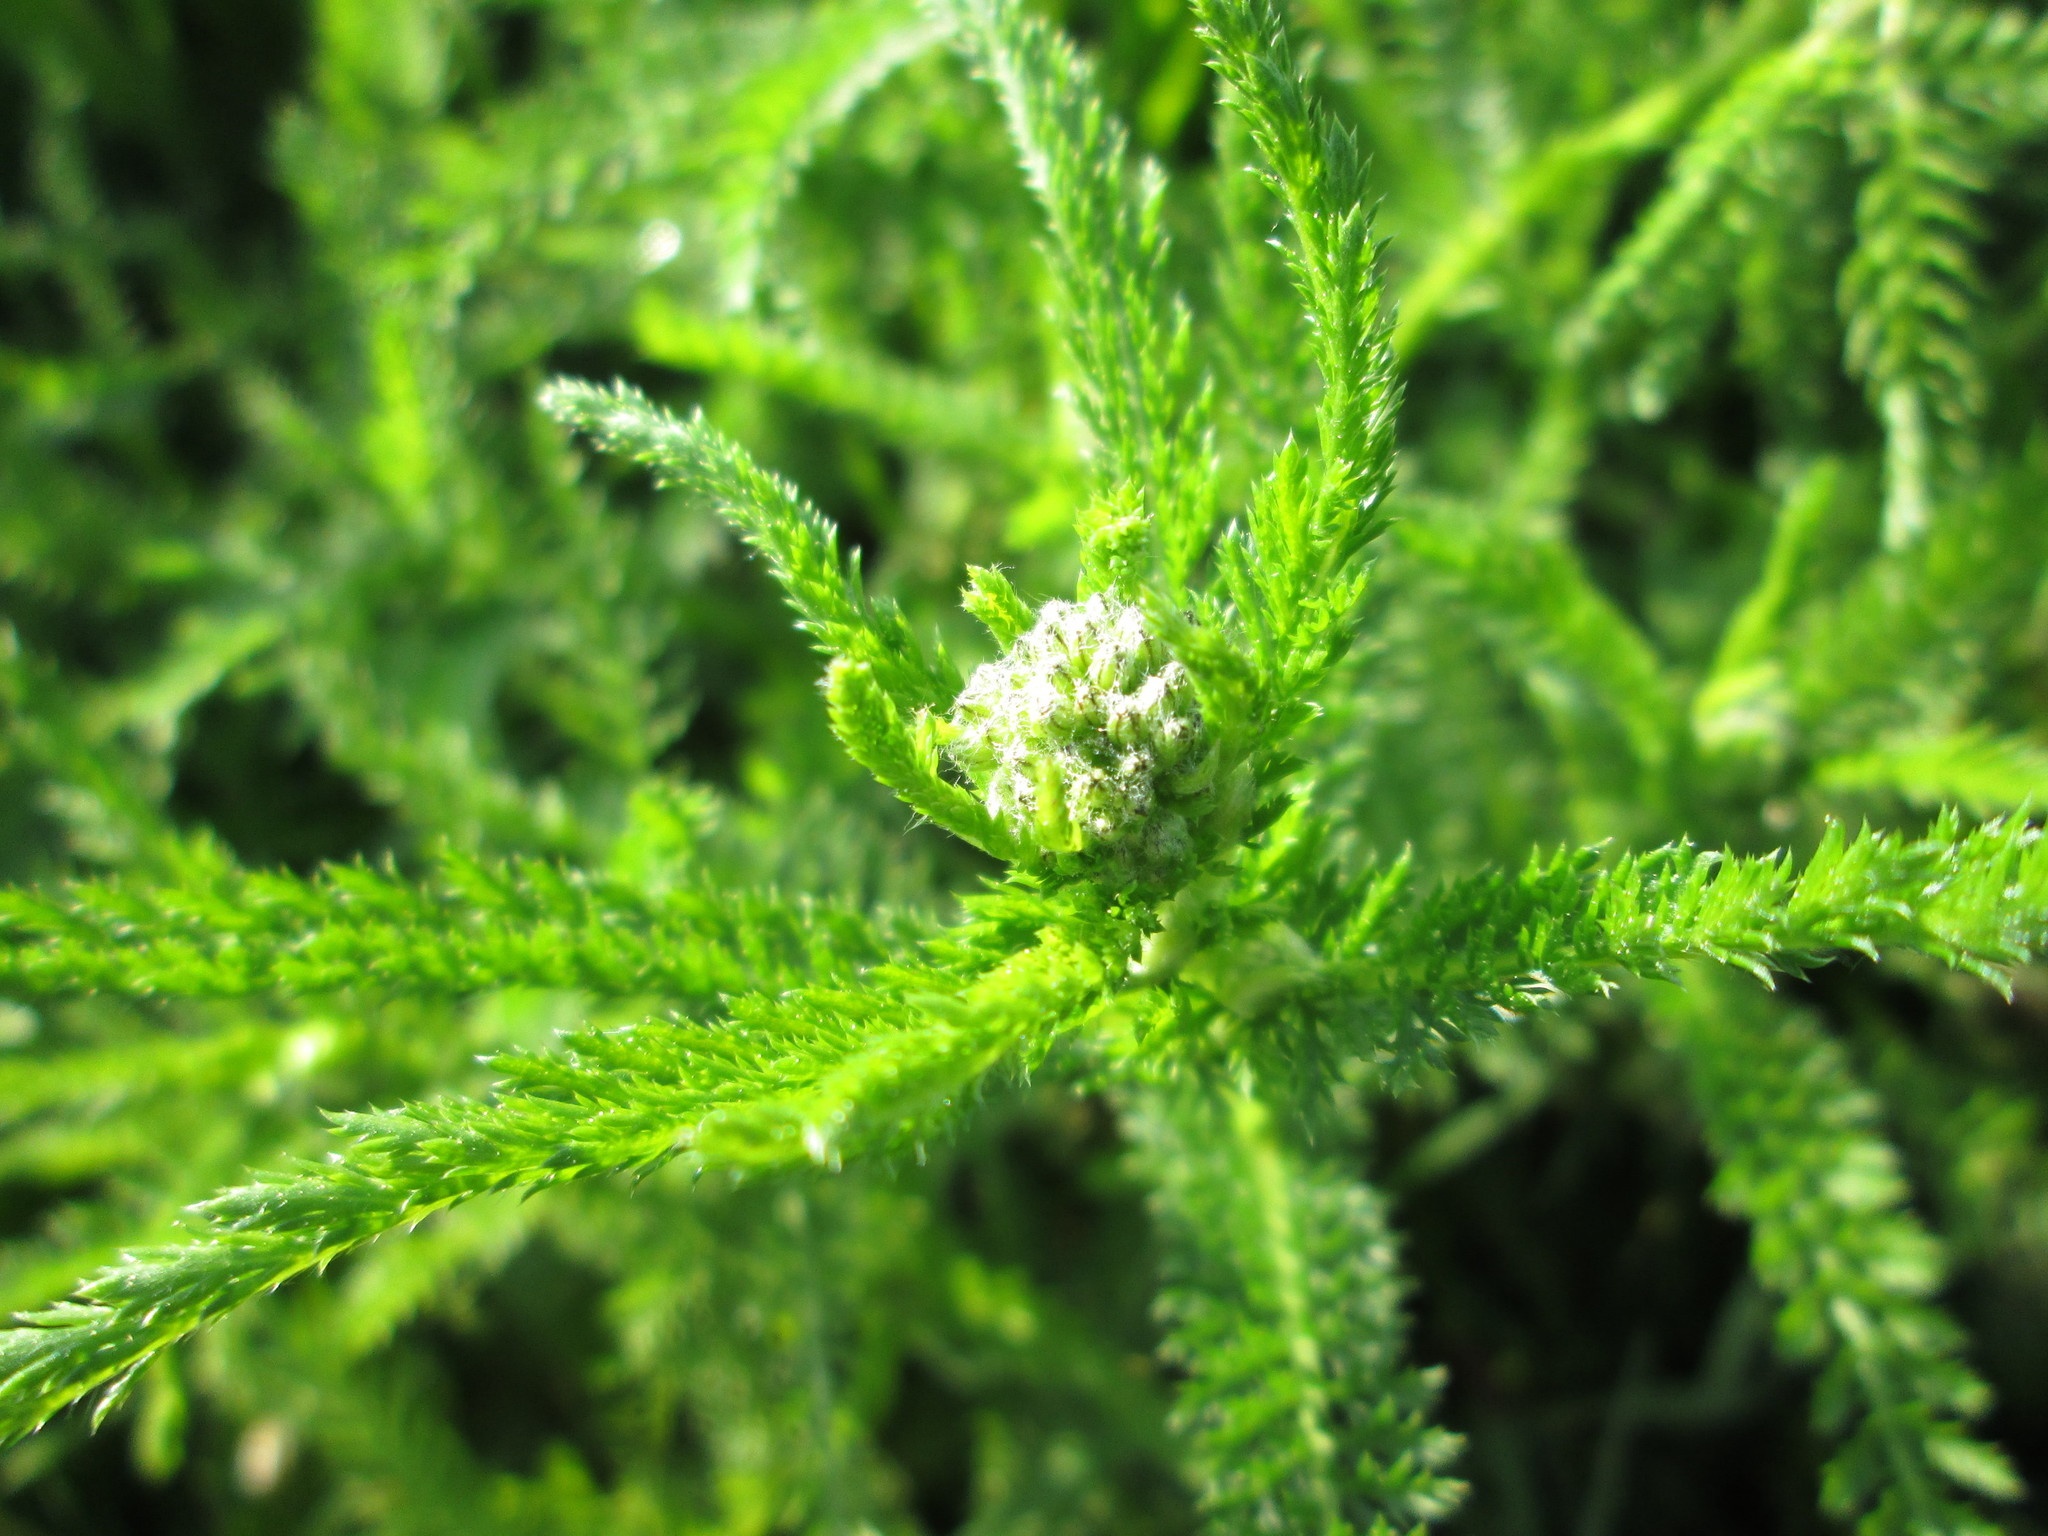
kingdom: Plantae
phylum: Tracheophyta
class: Magnoliopsida
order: Asterales
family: Asteraceae
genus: Achillea
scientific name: Achillea millefolium
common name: Yarrow
